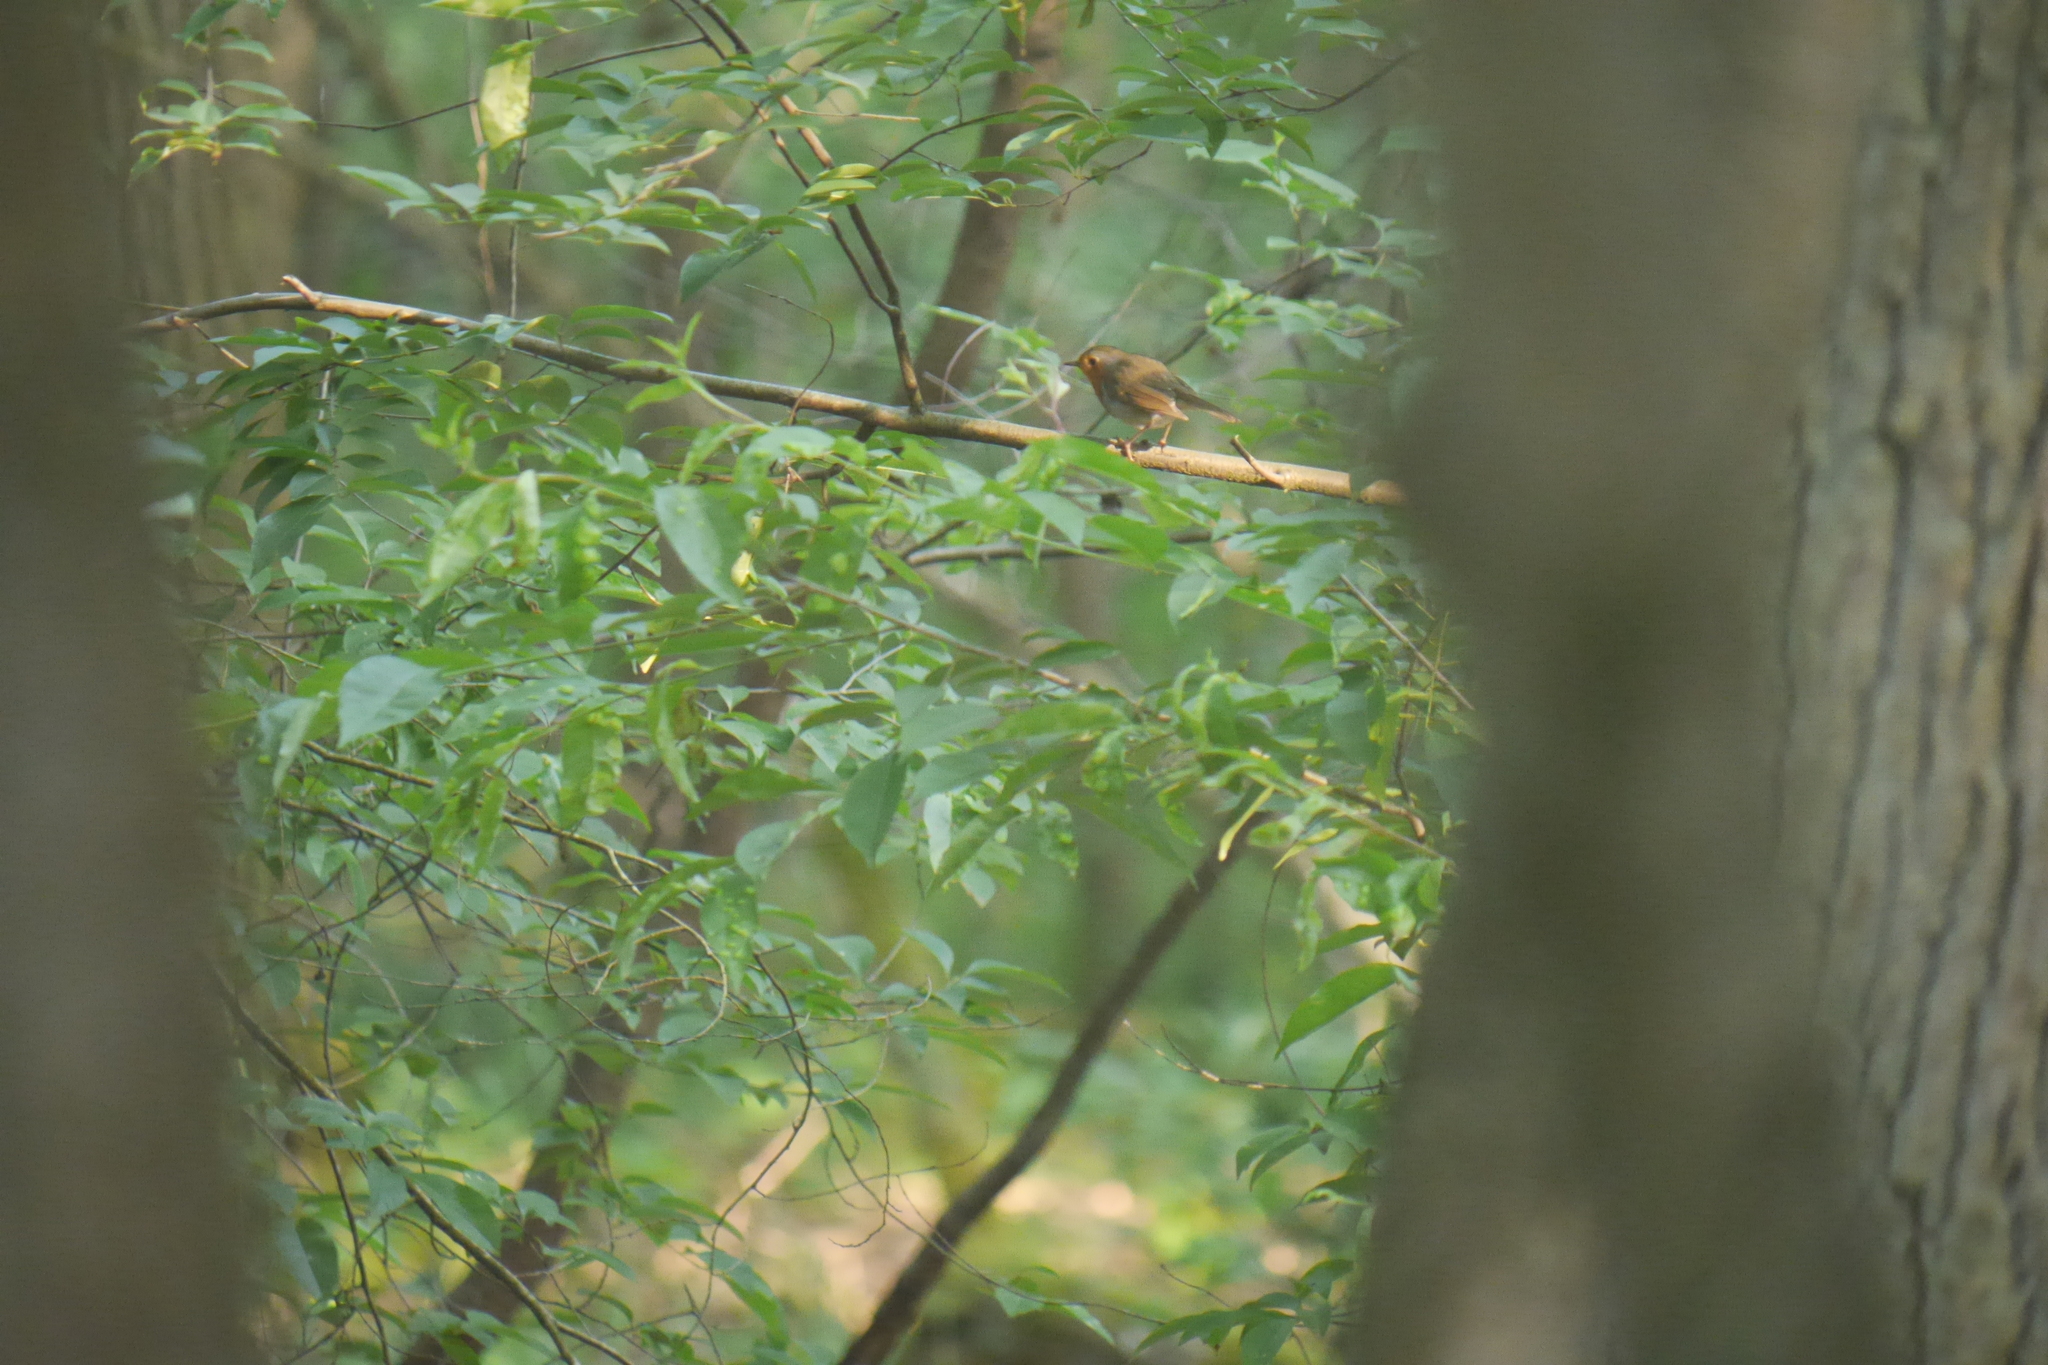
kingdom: Animalia
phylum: Chordata
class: Aves
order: Passeriformes
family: Muscicapidae
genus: Erithacus
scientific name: Erithacus rubecula
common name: European robin
